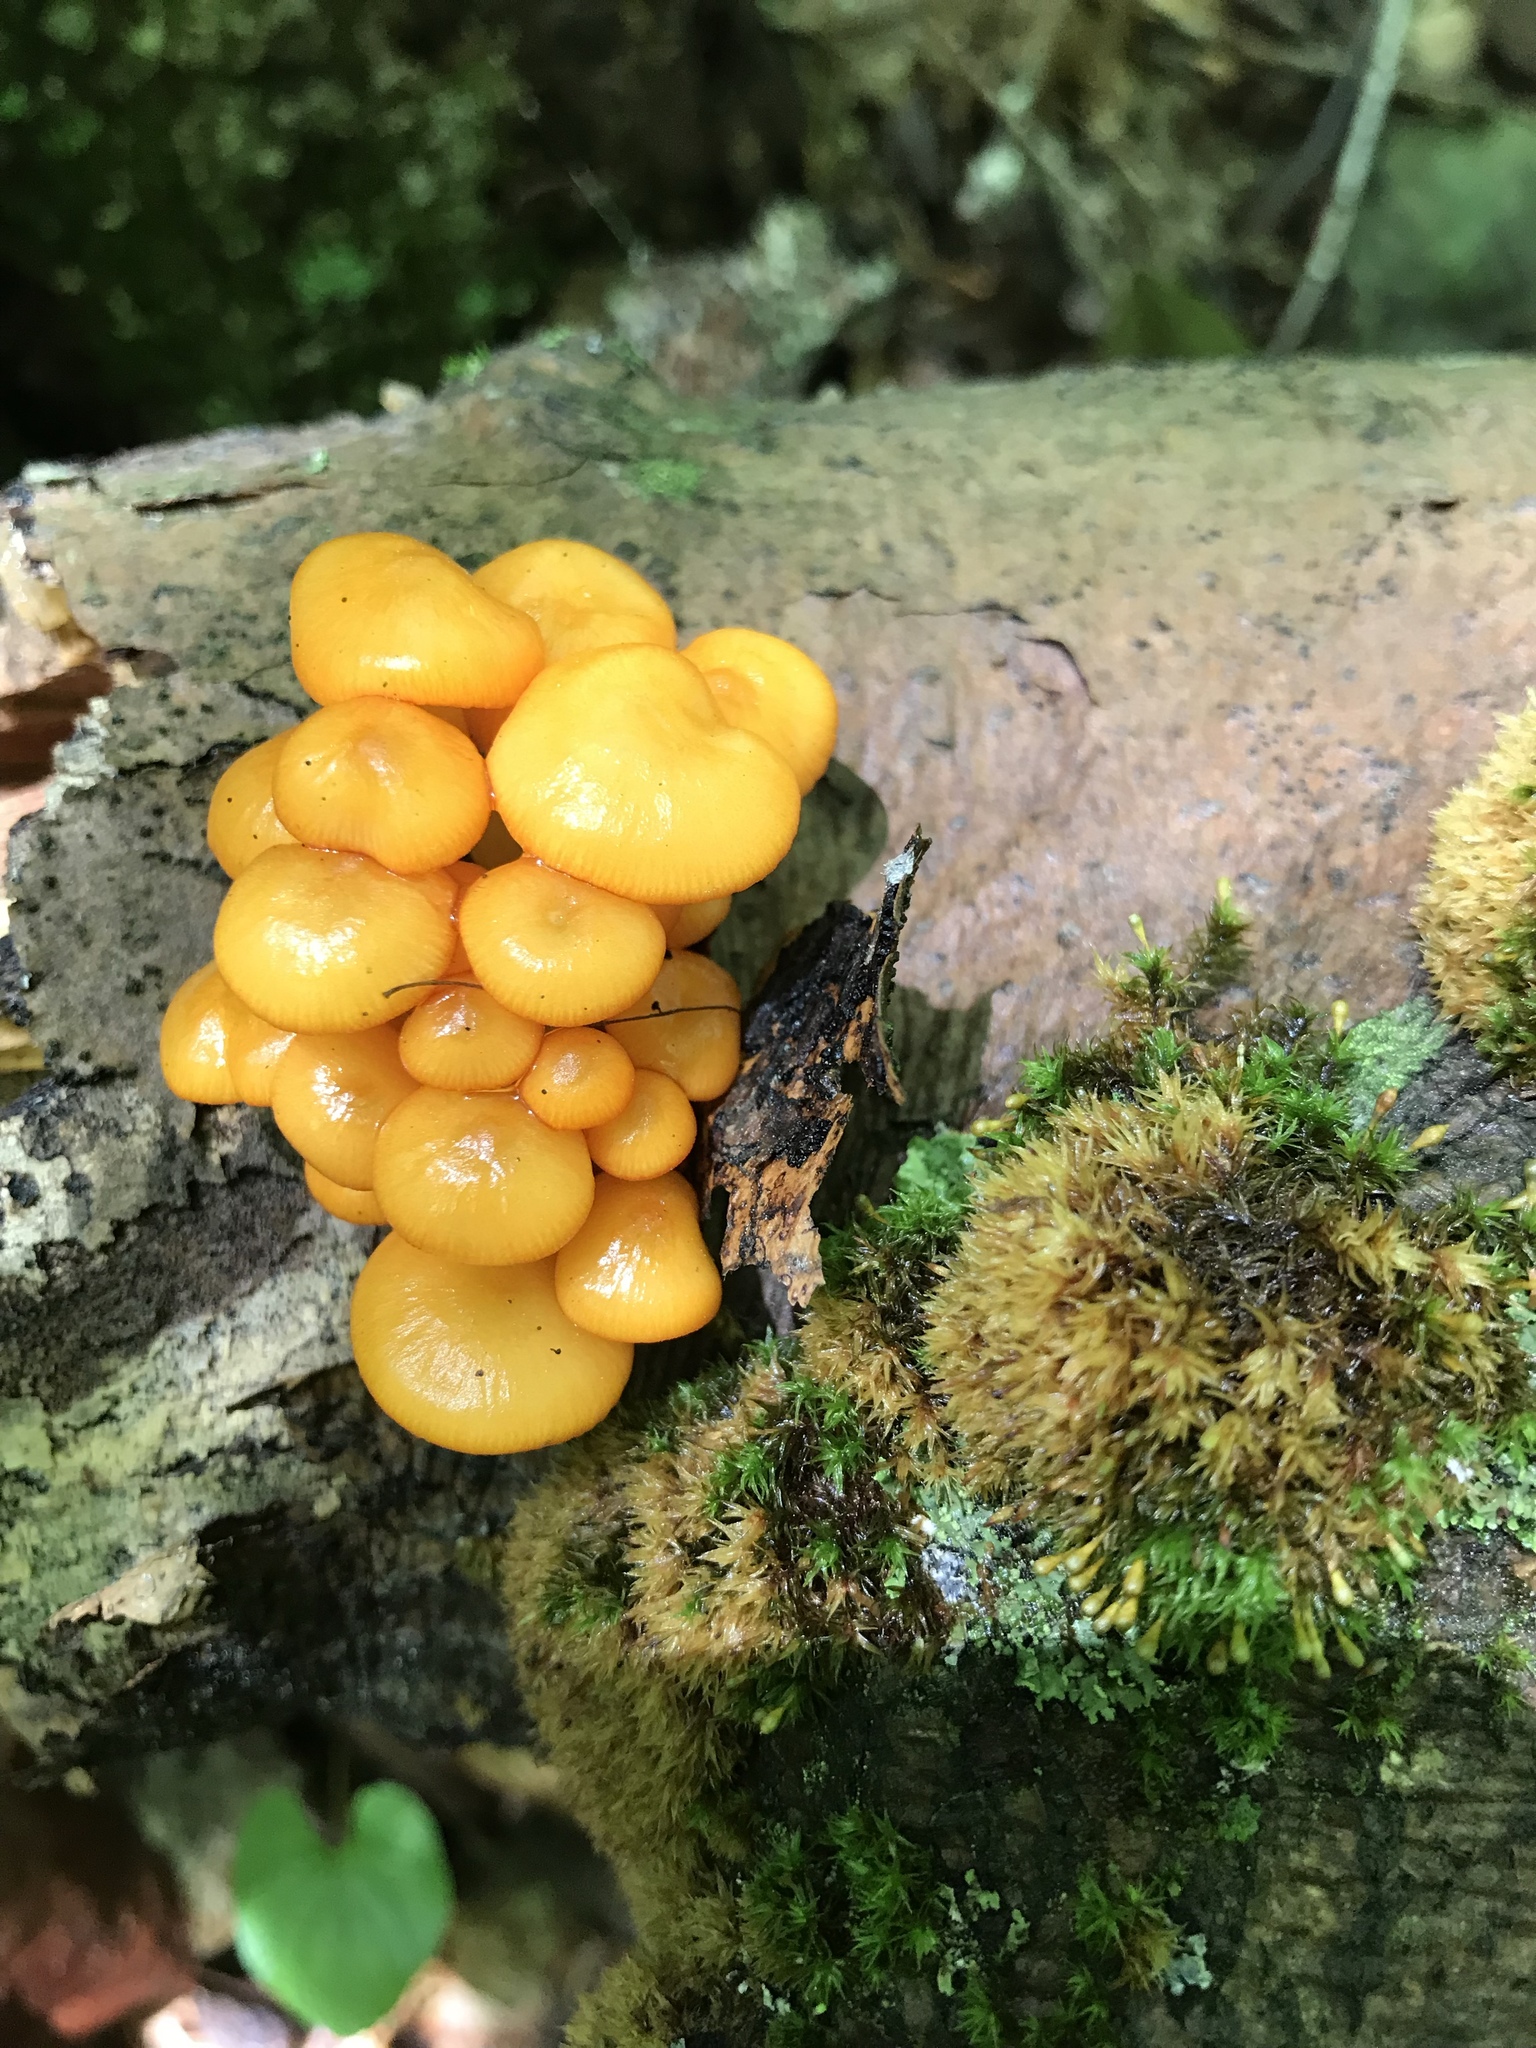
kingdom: Fungi
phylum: Basidiomycota
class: Agaricomycetes
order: Agaricales
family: Mycenaceae
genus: Mycena
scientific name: Mycena leaiana
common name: Orange mycena
